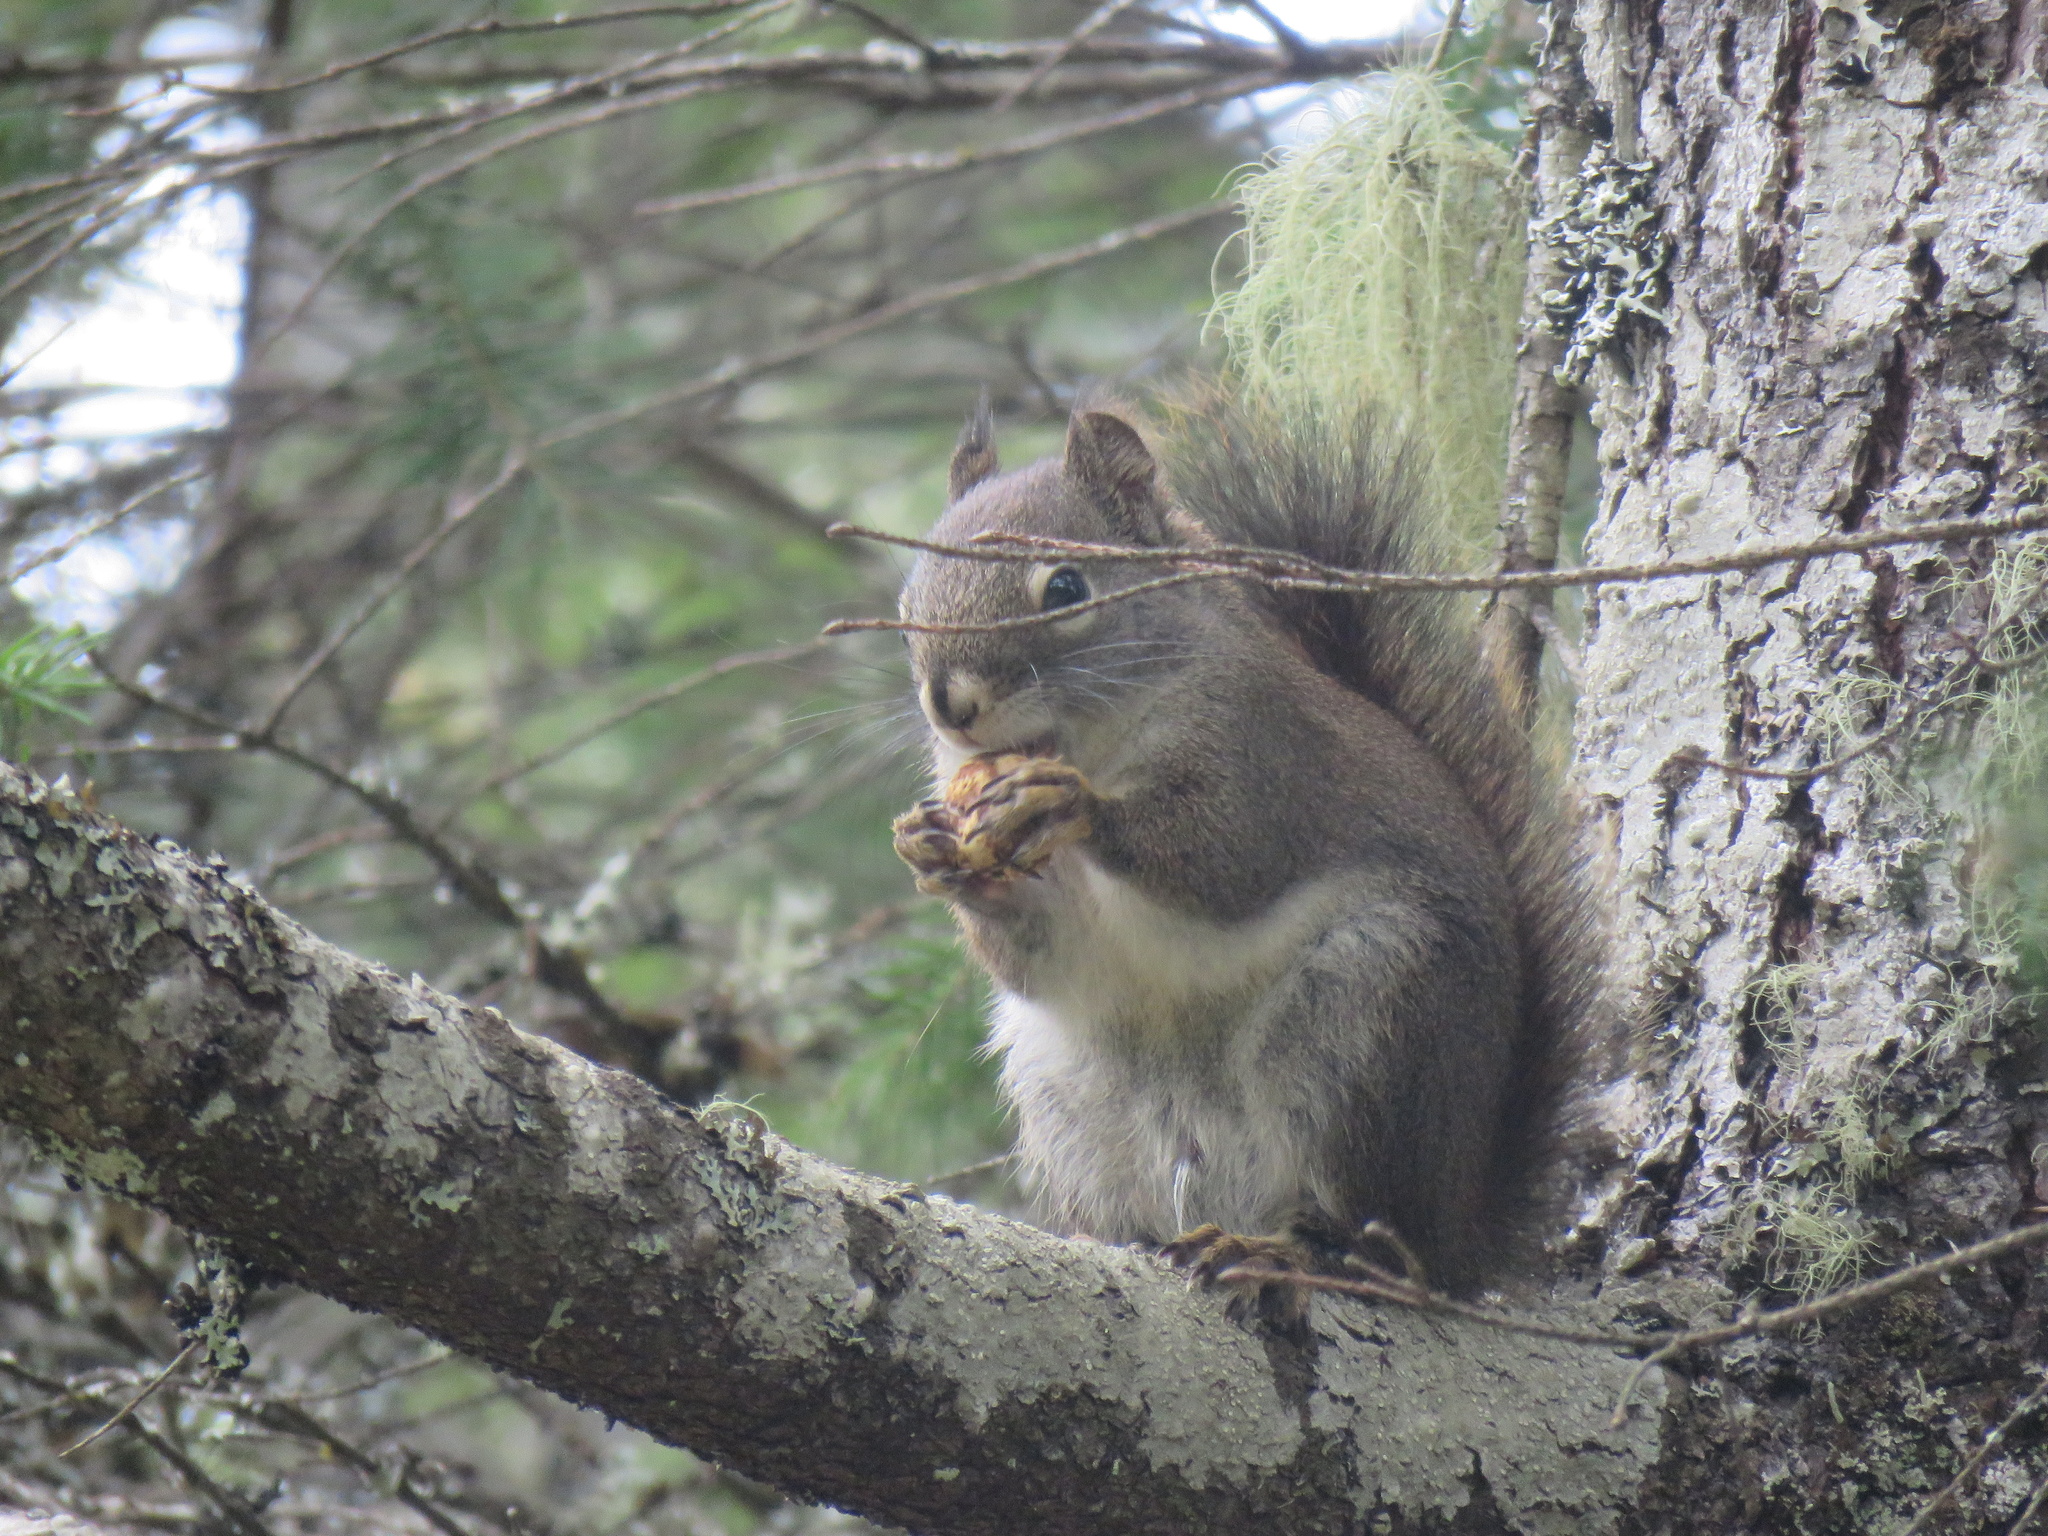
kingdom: Animalia
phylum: Chordata
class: Mammalia
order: Rodentia
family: Sciuridae
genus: Tamiasciurus
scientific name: Tamiasciurus hudsonicus
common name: Red squirrel
